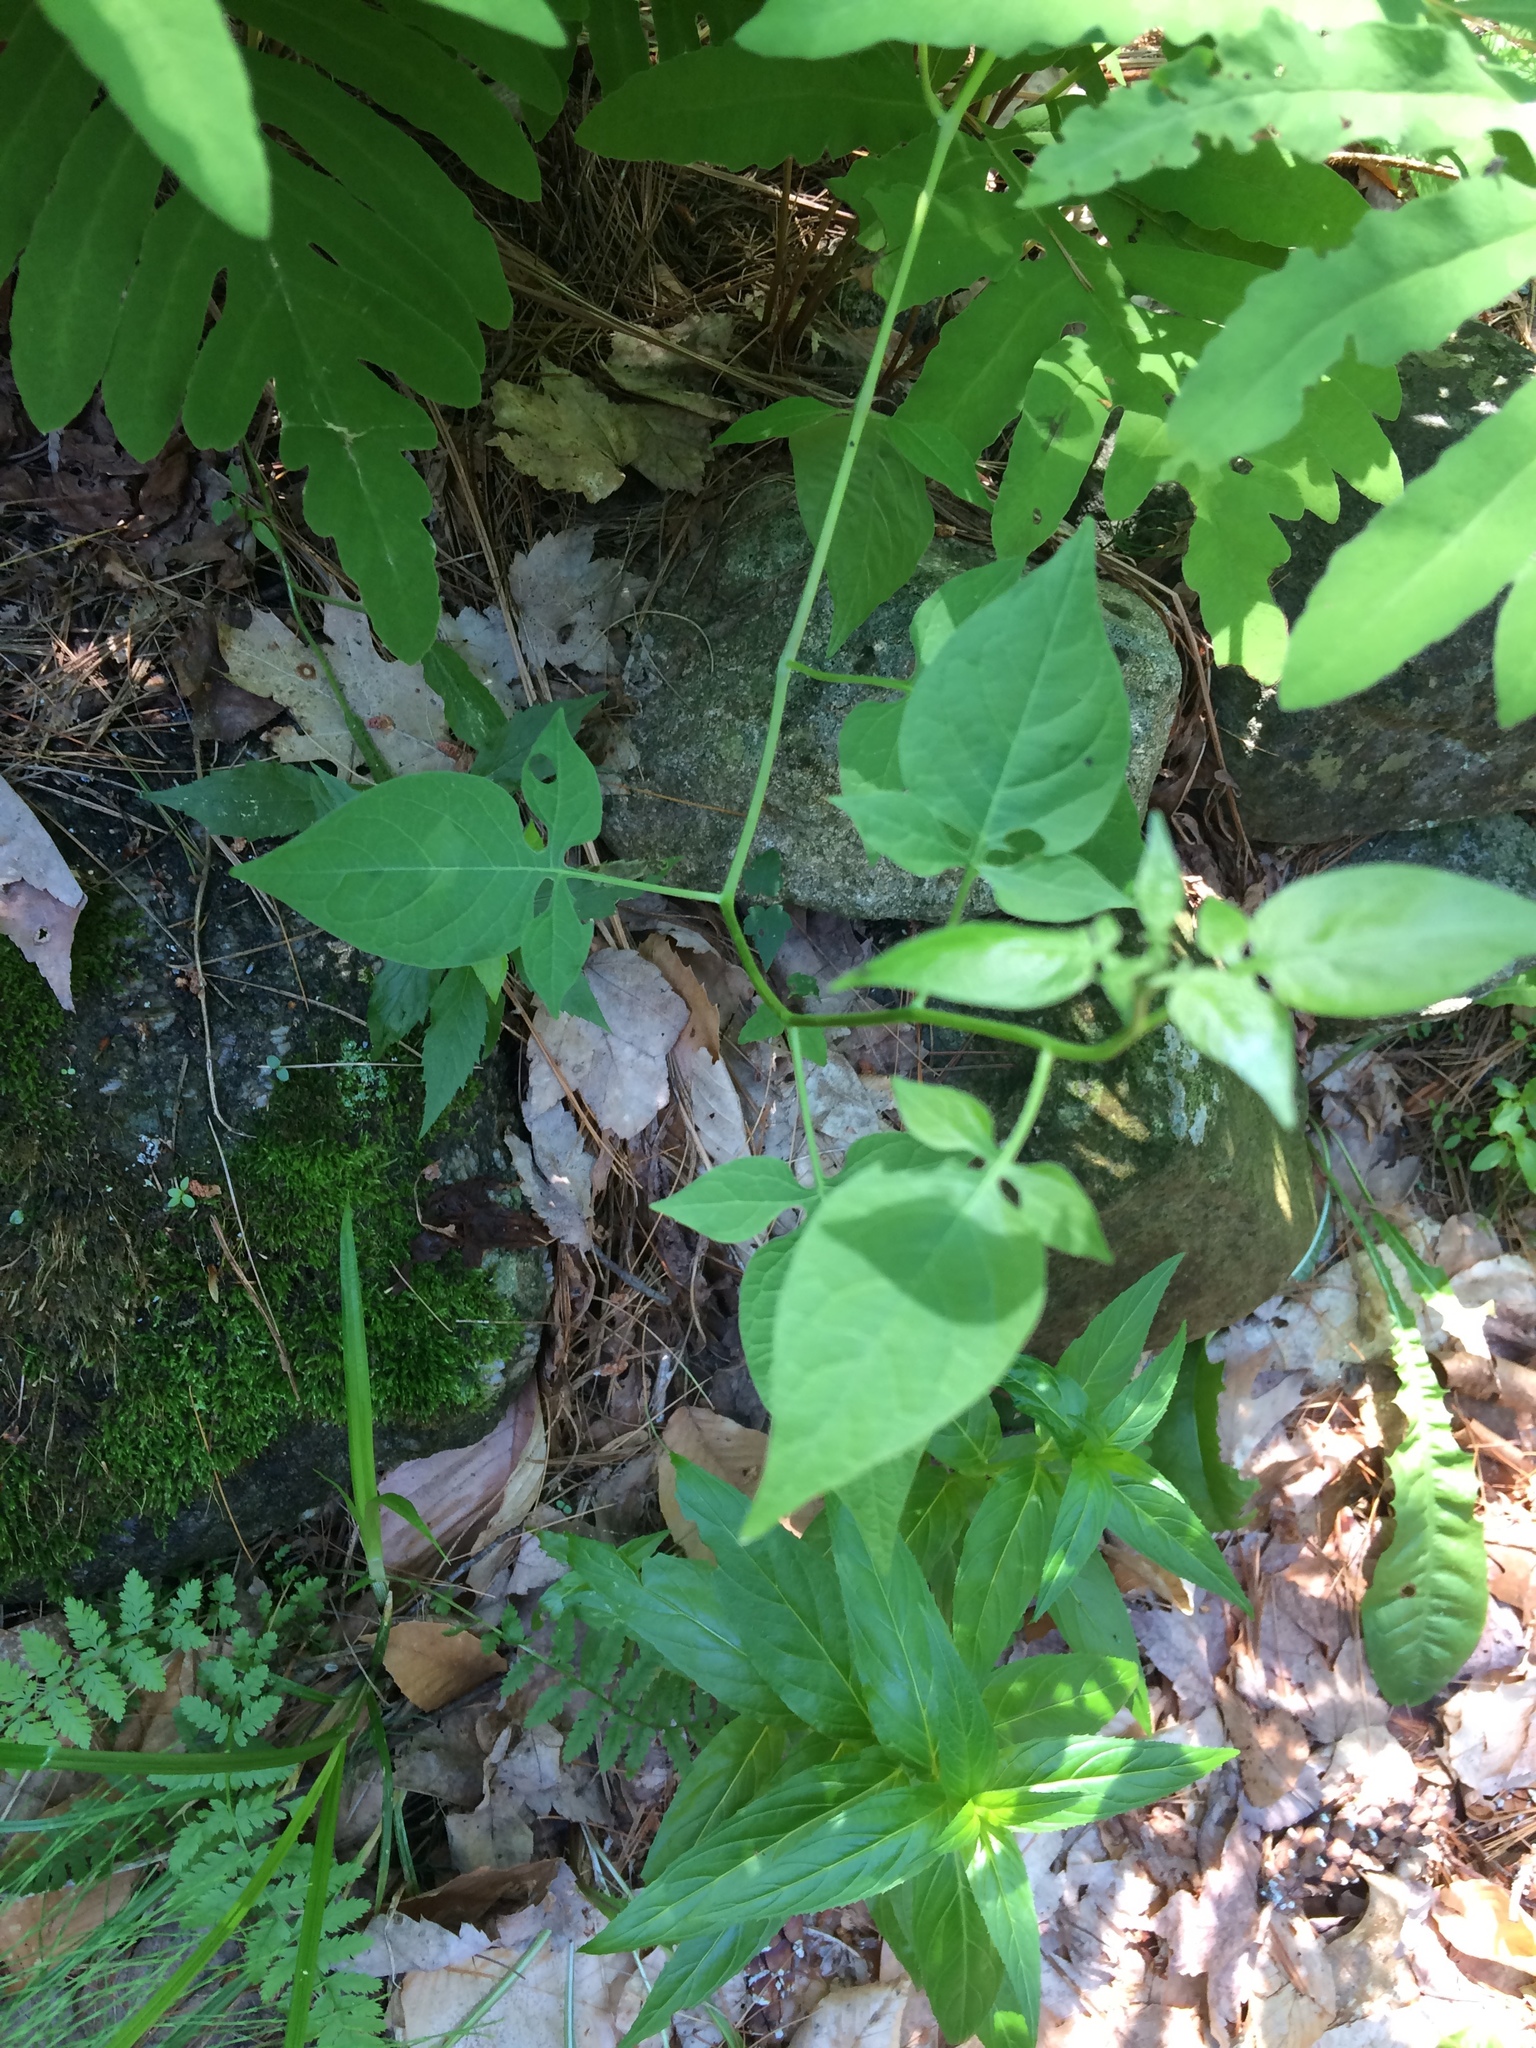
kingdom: Plantae
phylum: Tracheophyta
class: Magnoliopsida
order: Solanales
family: Solanaceae
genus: Solanum
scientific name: Solanum dulcamara
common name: Climbing nightshade
